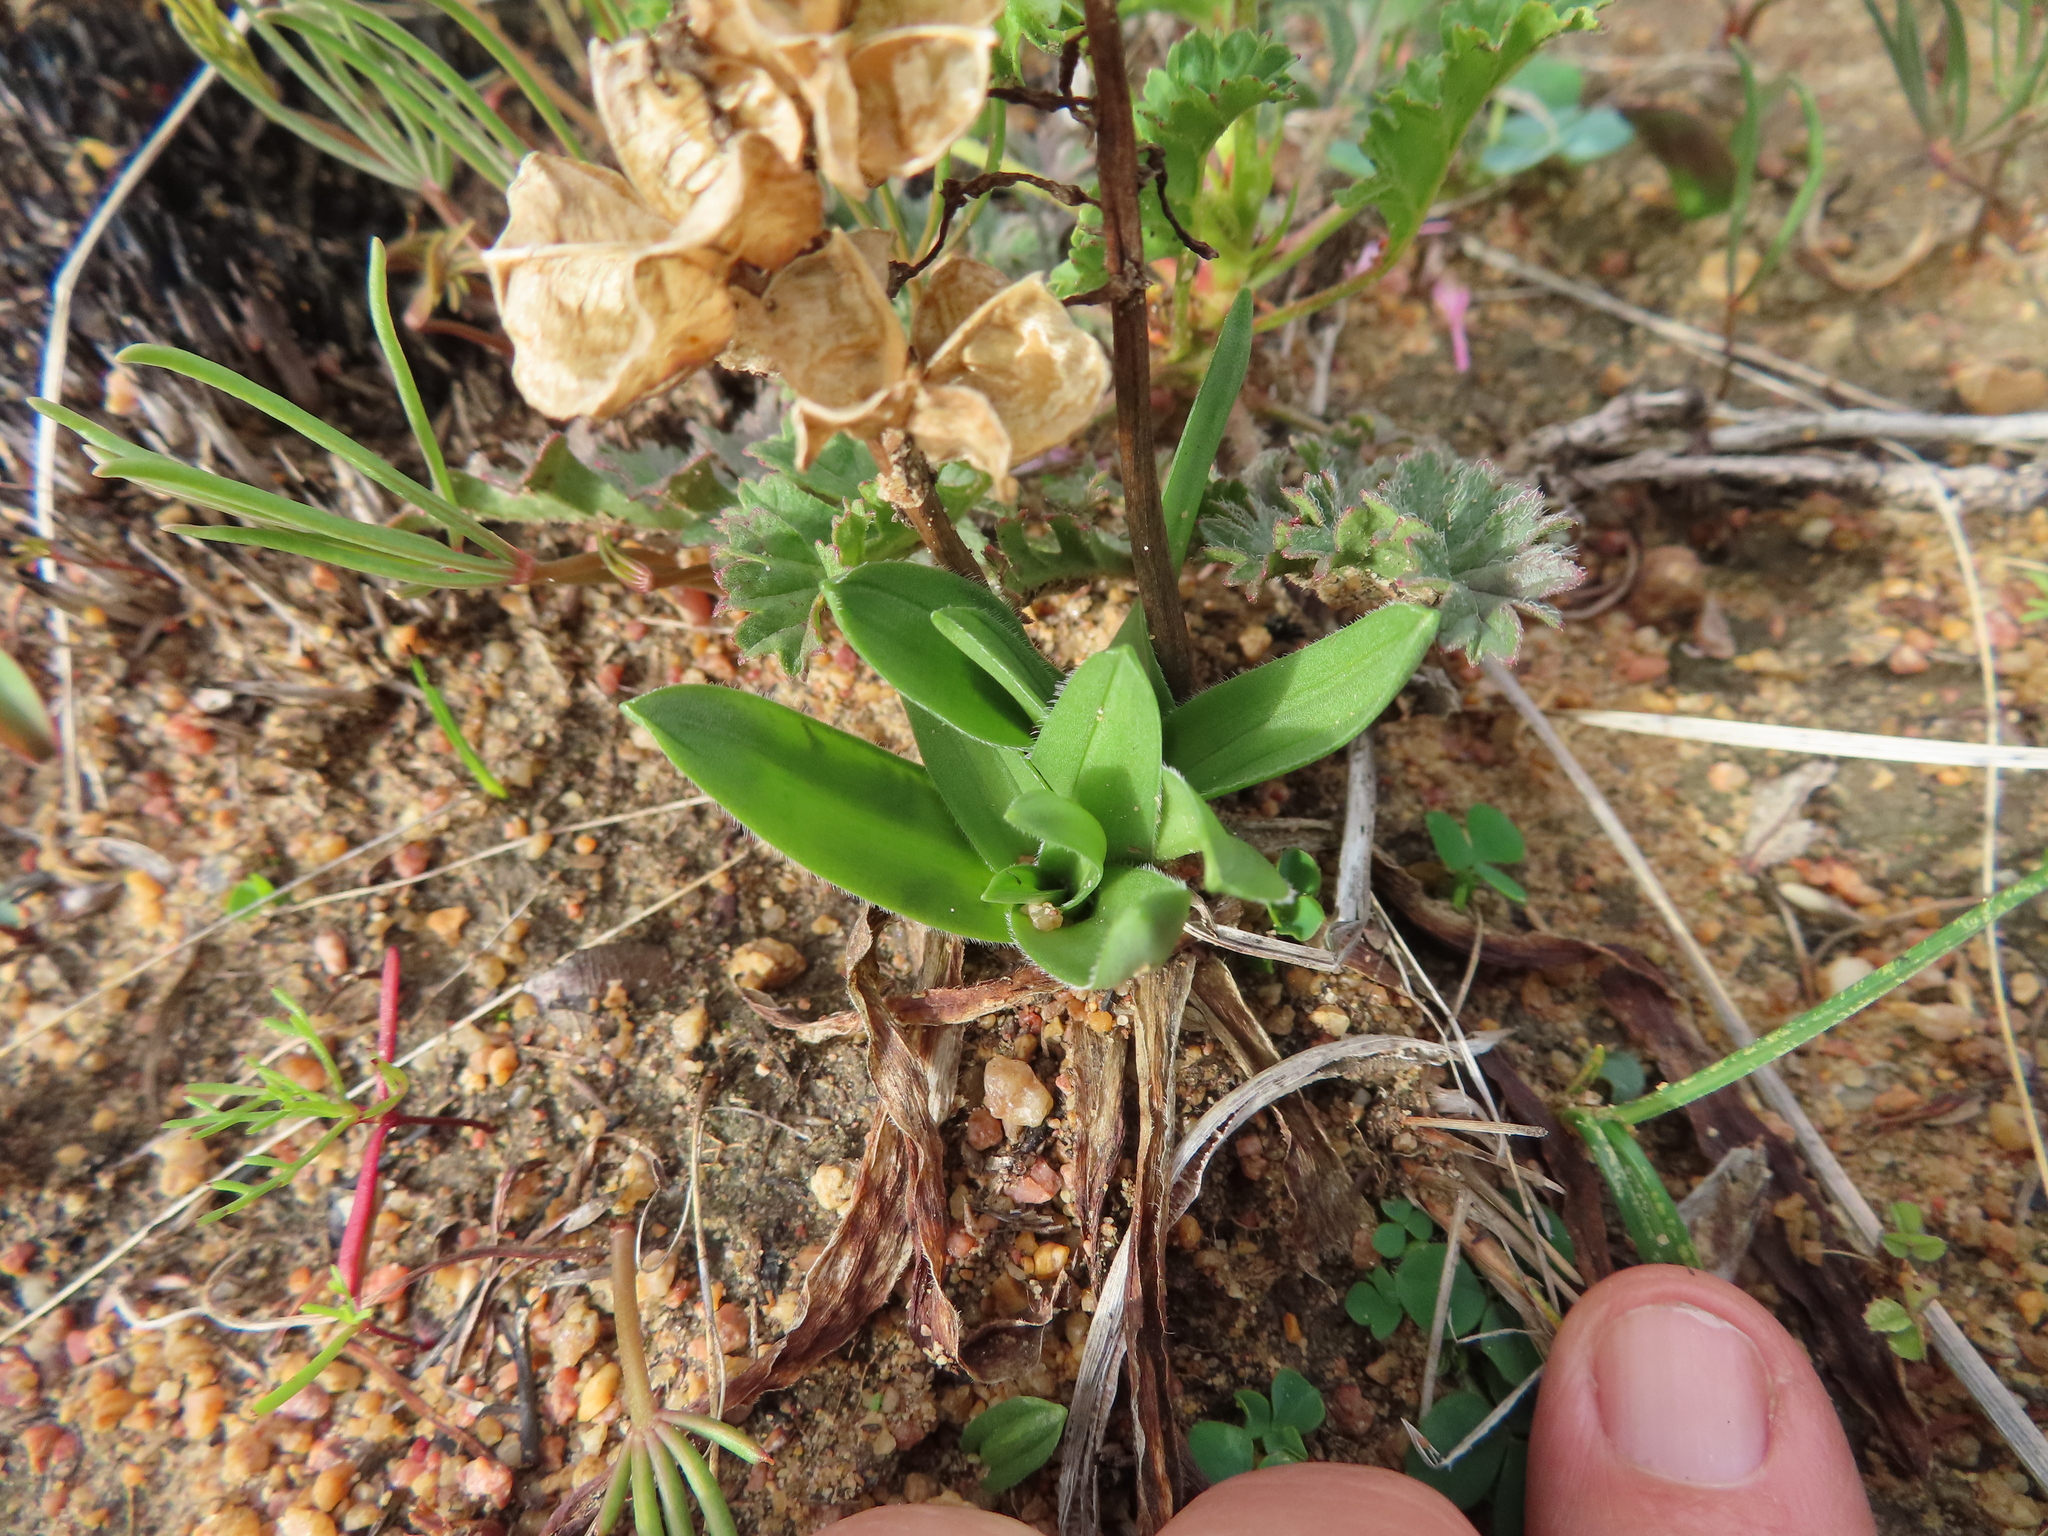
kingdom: Plantae
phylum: Tracheophyta
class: Liliopsida
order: Asparagales
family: Asparagaceae
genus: Drimia
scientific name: Drimia elata
